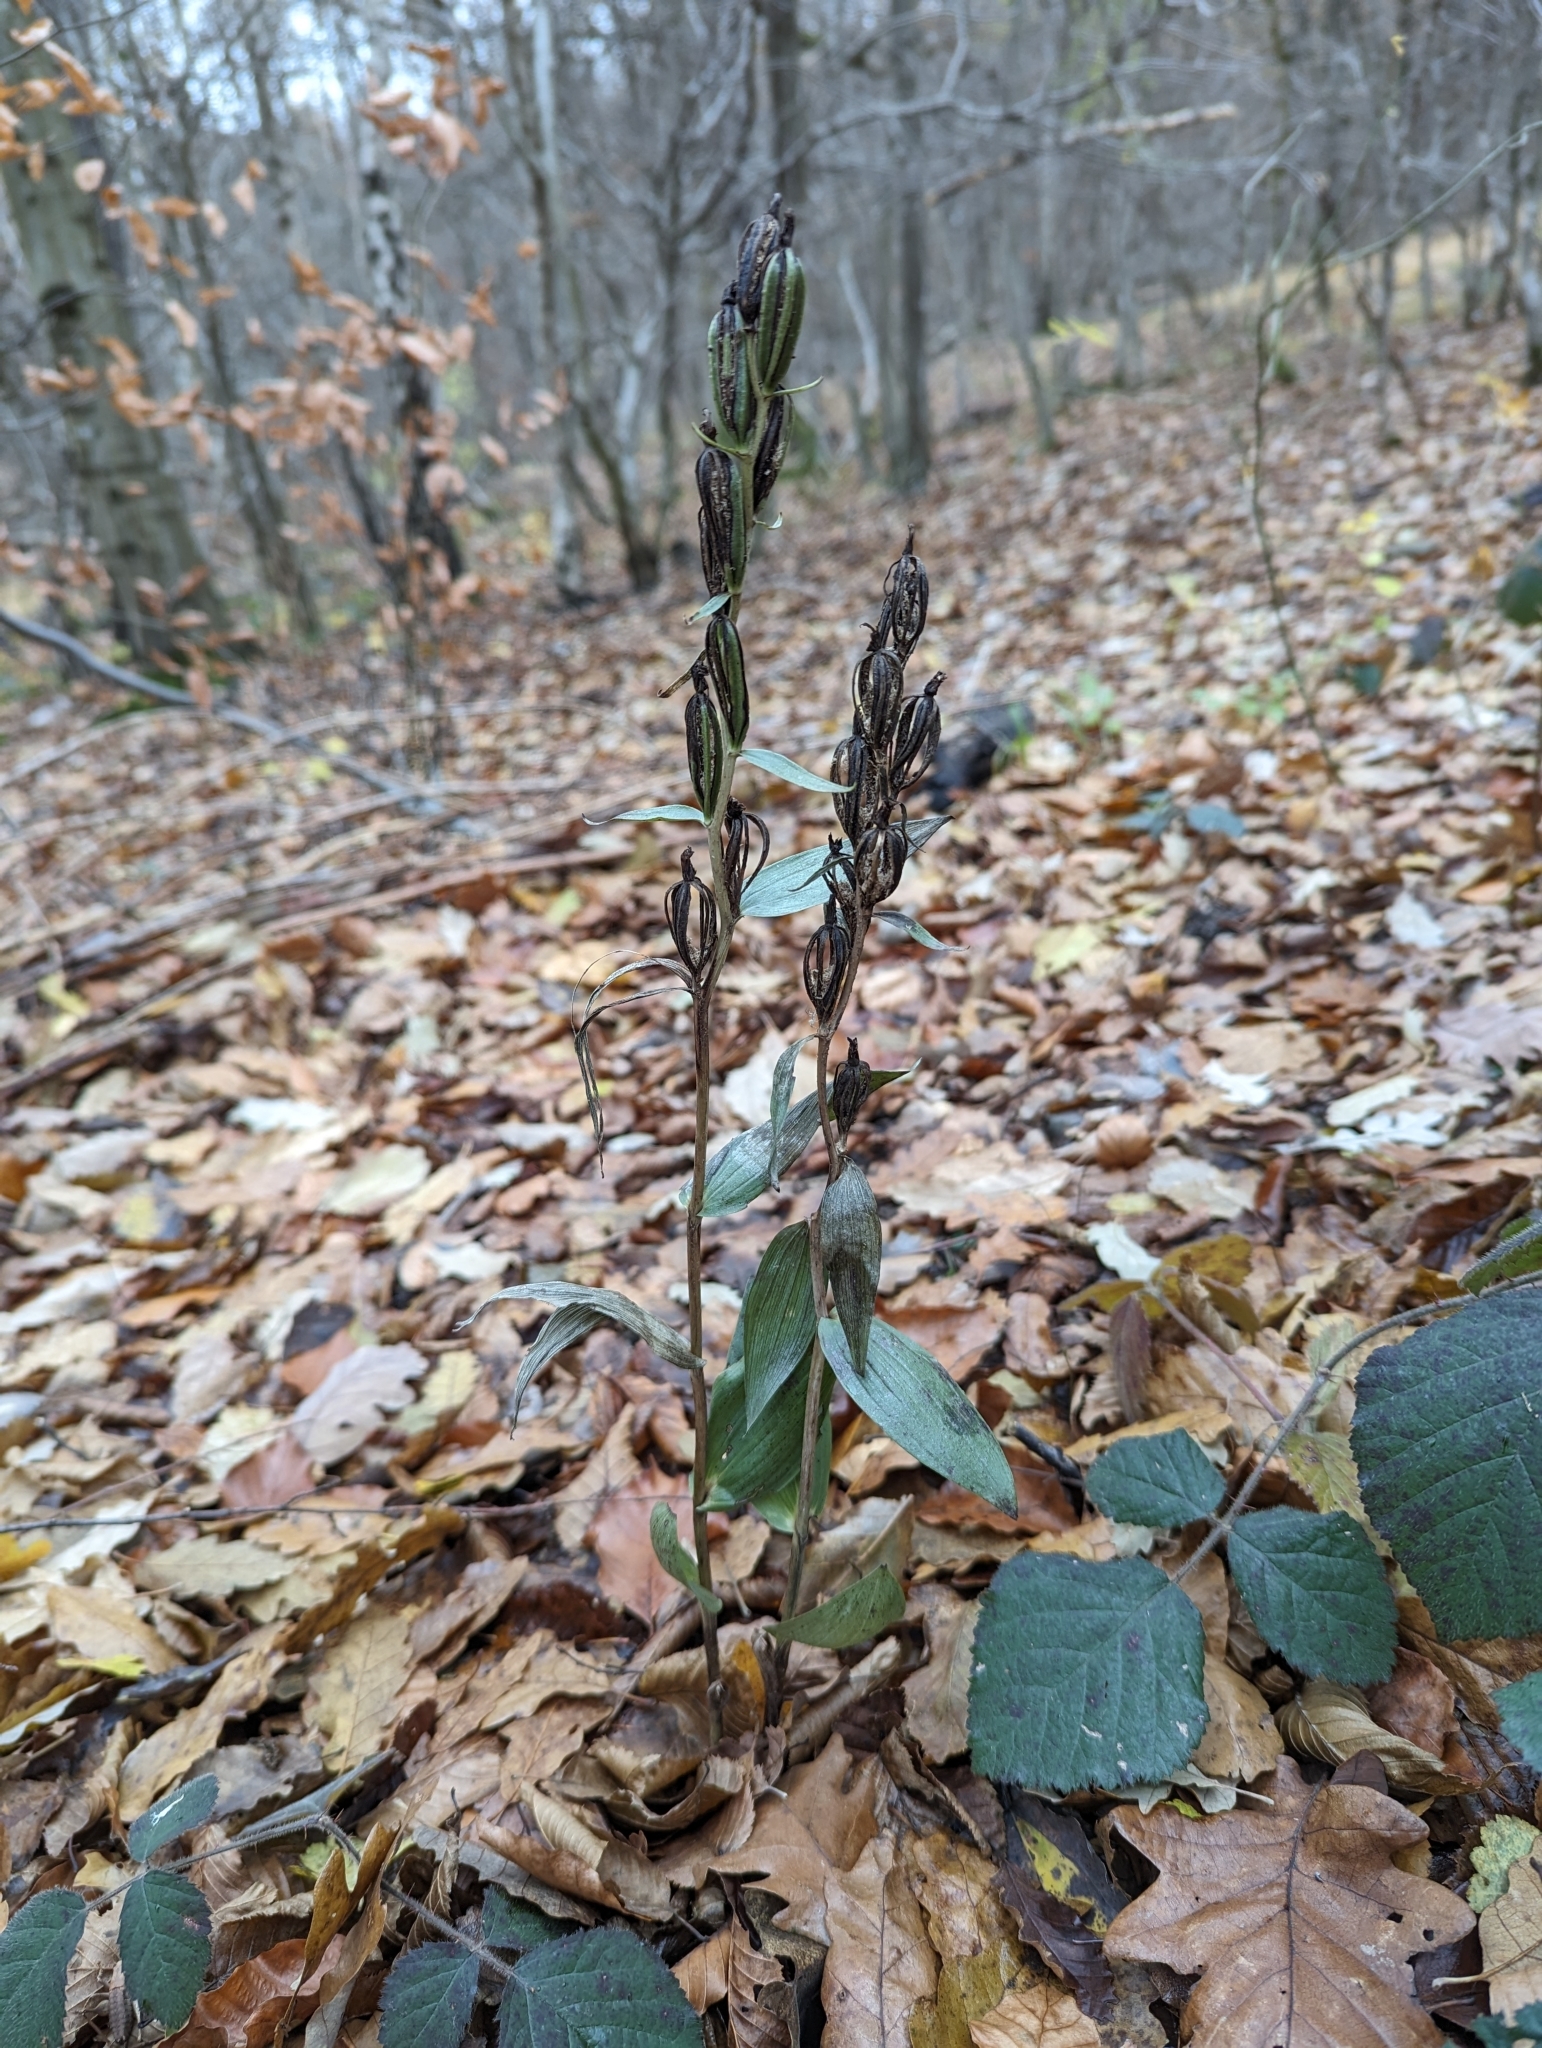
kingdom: Plantae
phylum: Tracheophyta
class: Liliopsida
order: Asparagales
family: Orchidaceae
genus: Cephalanthera
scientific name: Cephalanthera damasonium
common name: White helleborine
